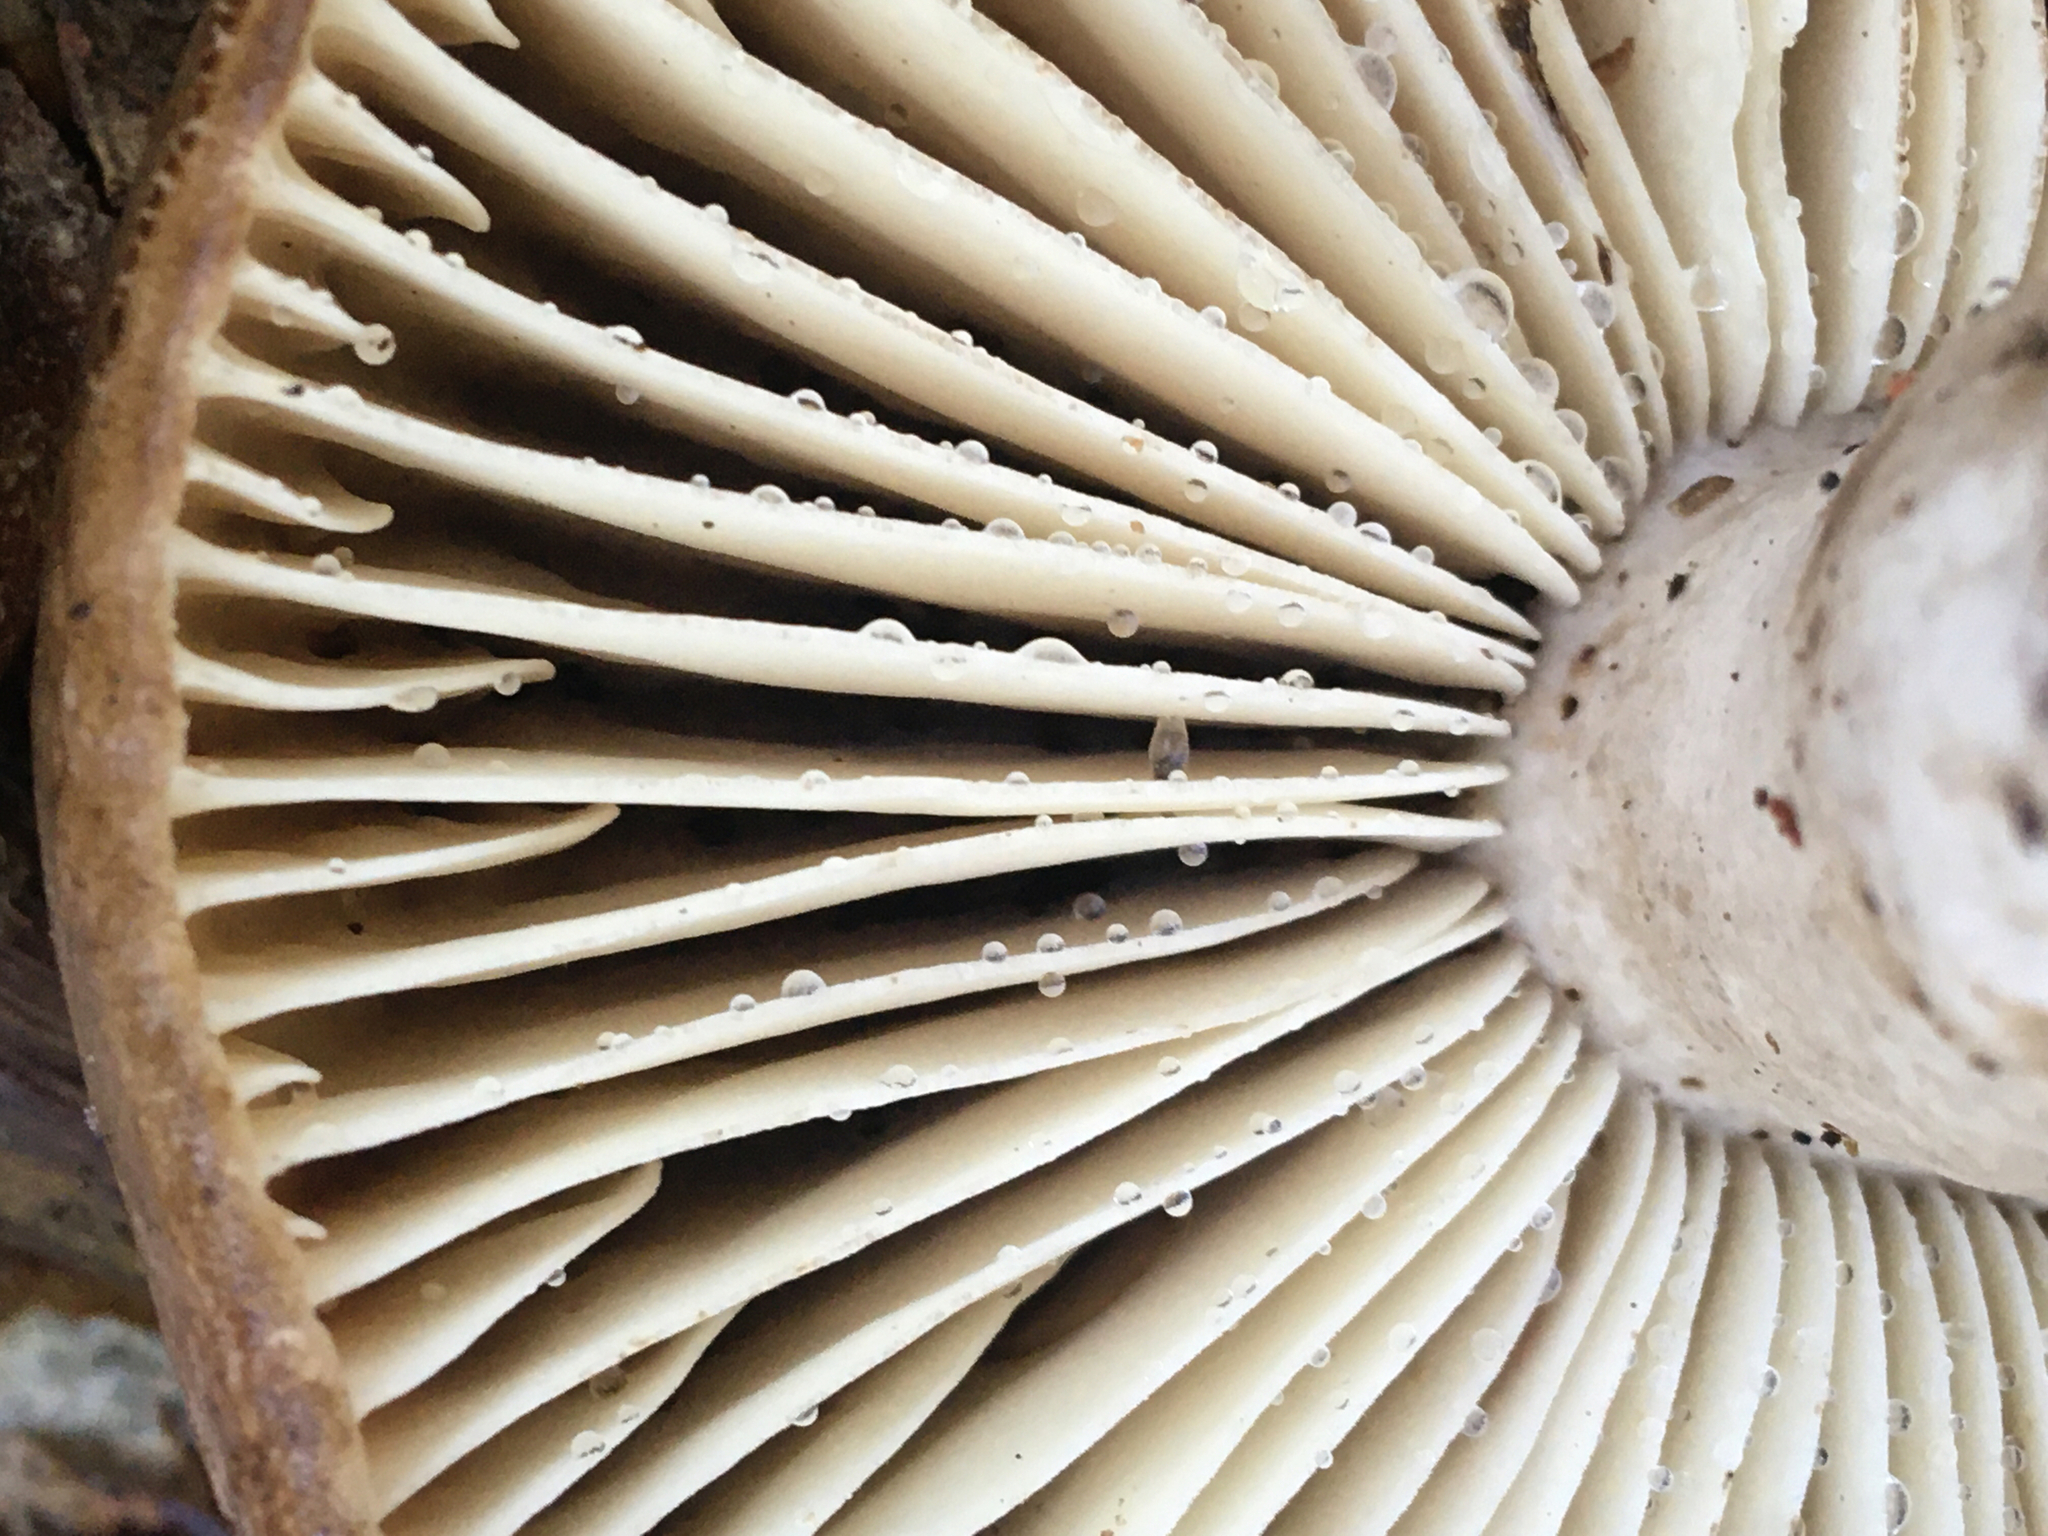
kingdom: Fungi
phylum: Basidiomycota
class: Agaricomycetes
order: Russulales
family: Russulaceae
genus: Russula
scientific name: Russula adusta
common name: Winecork brittlegill
